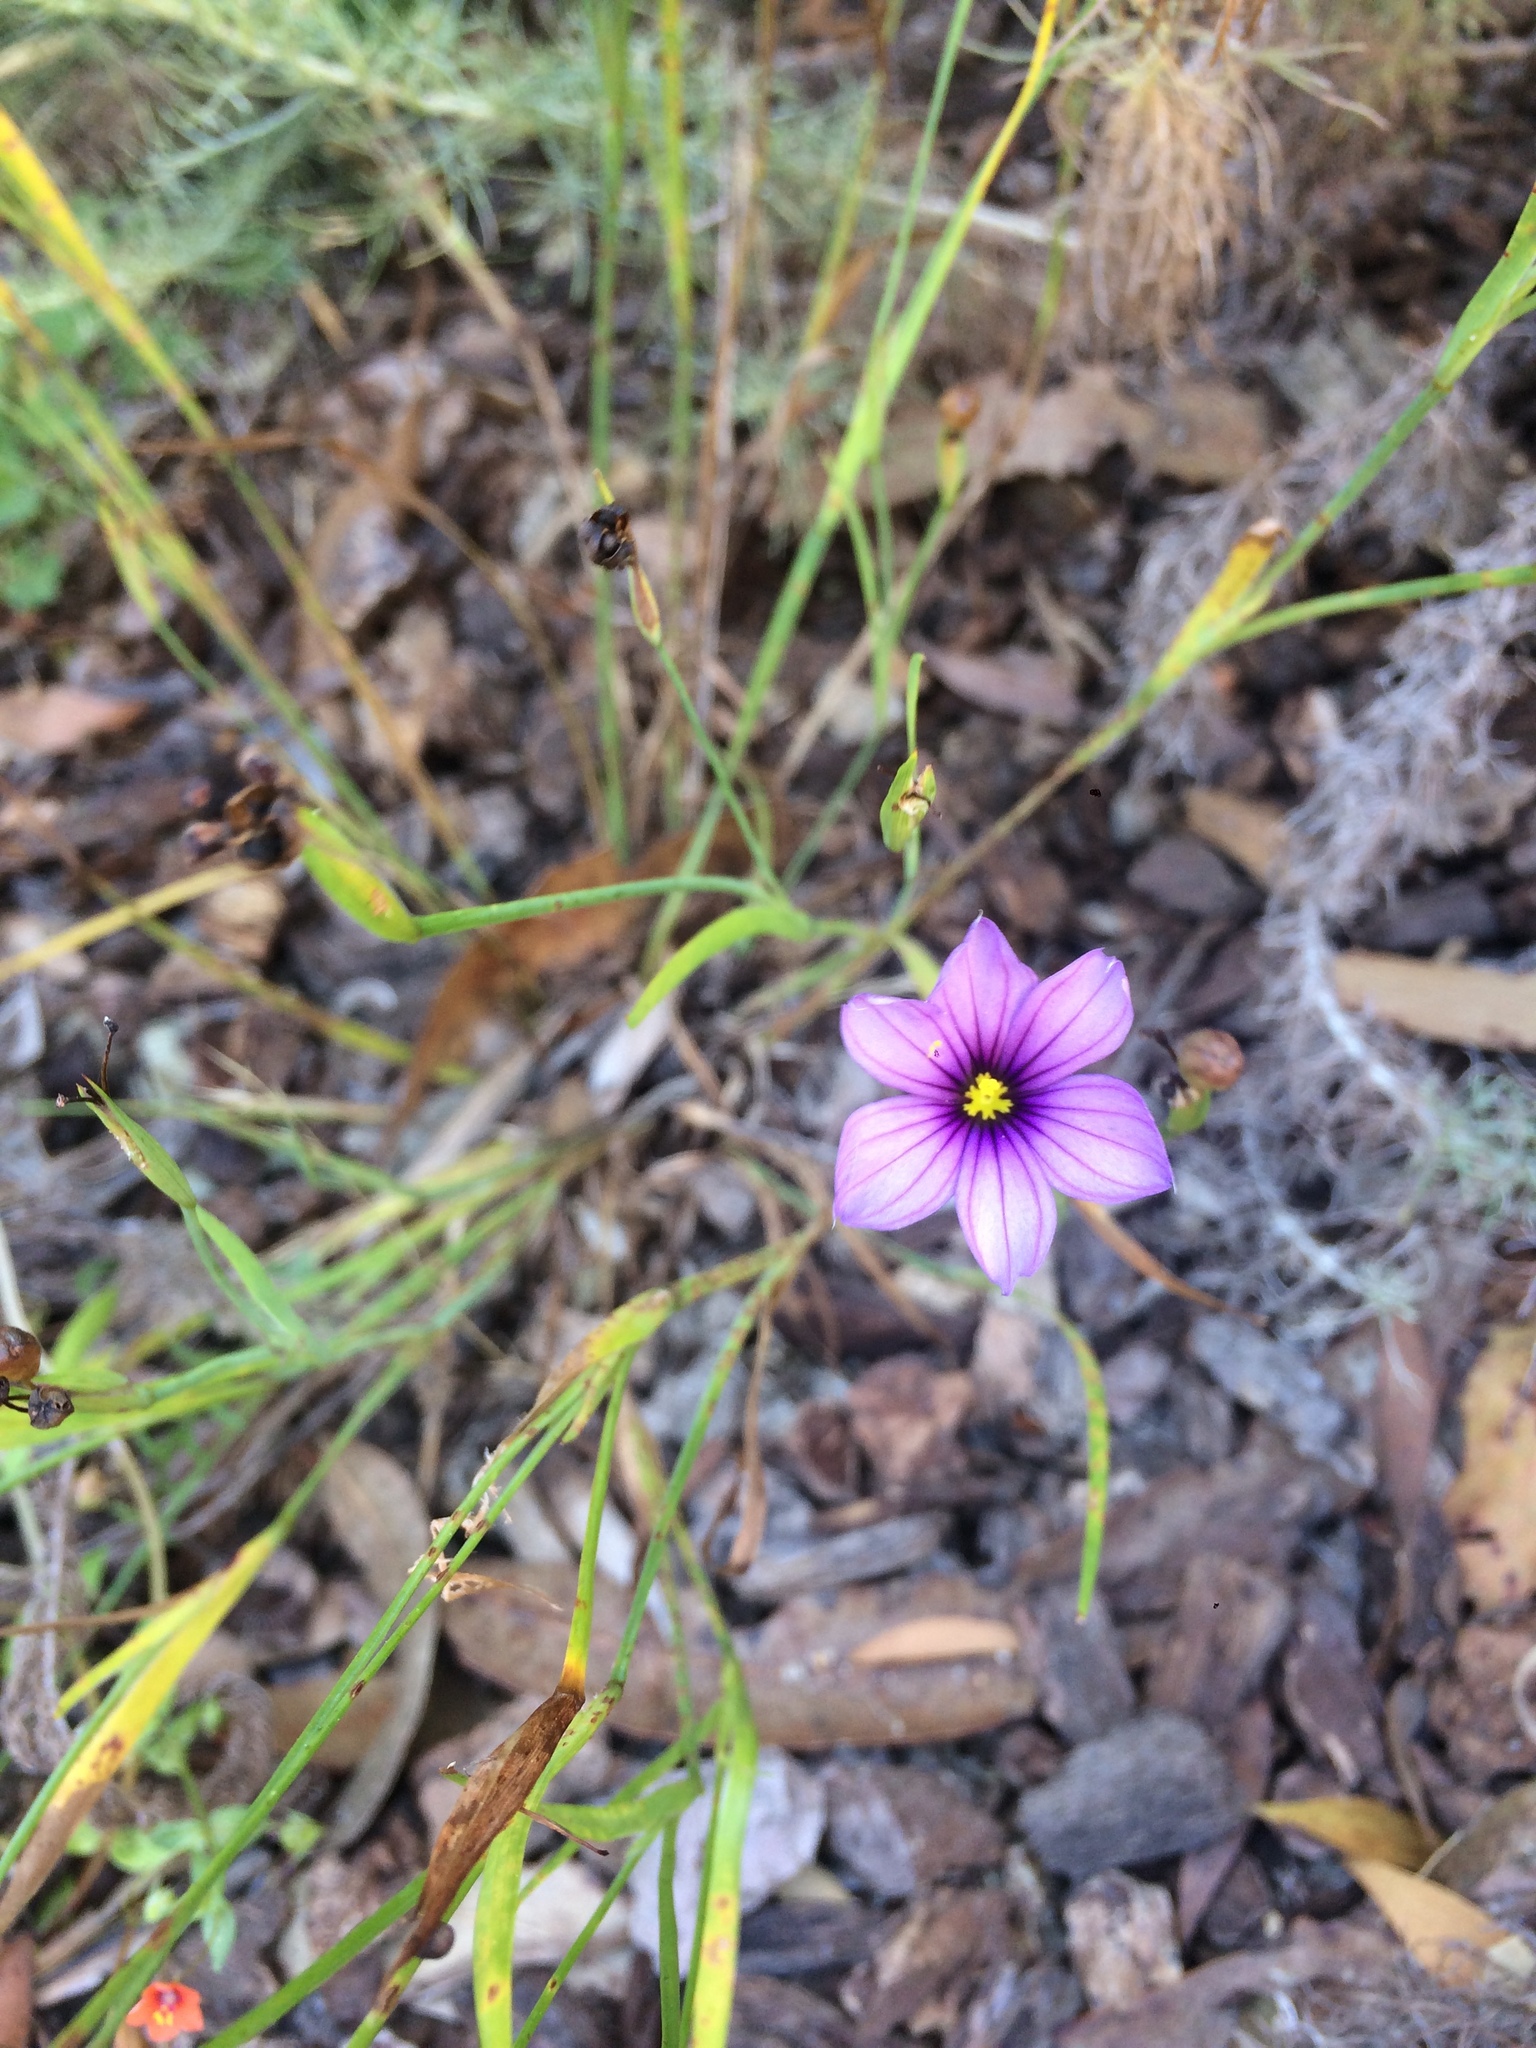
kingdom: Plantae
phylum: Tracheophyta
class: Liliopsida
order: Asparagales
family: Iridaceae
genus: Sisyrinchium
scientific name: Sisyrinchium bellum
